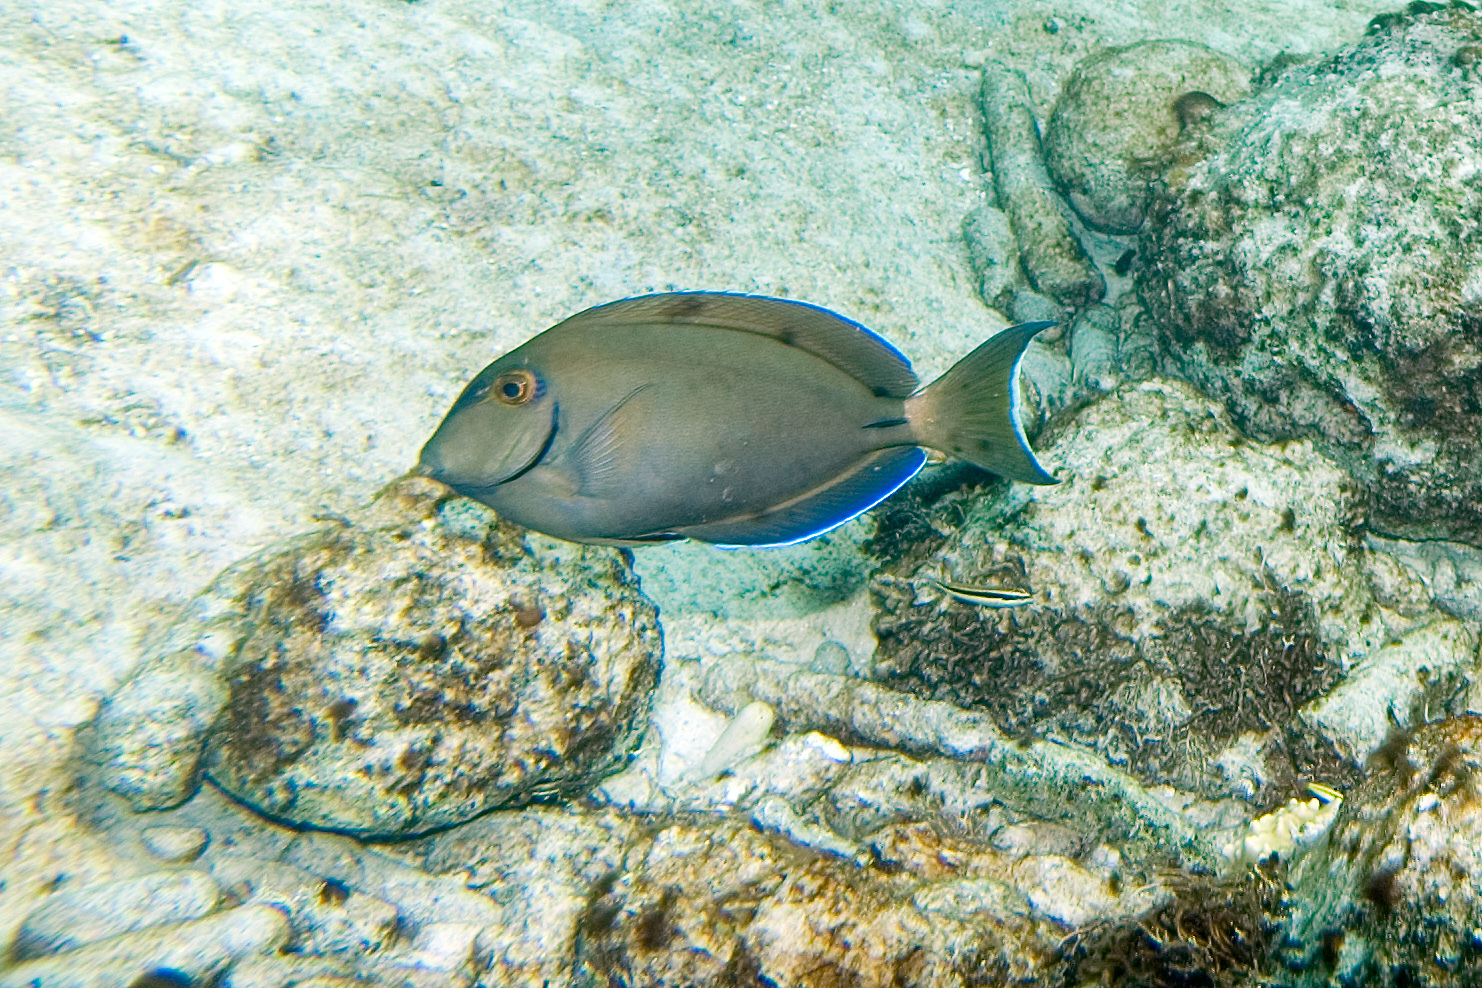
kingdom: Animalia
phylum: Chordata
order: Perciformes
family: Acanthuridae
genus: Acanthurus
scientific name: Acanthurus bahianus
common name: Ocean surgeon
